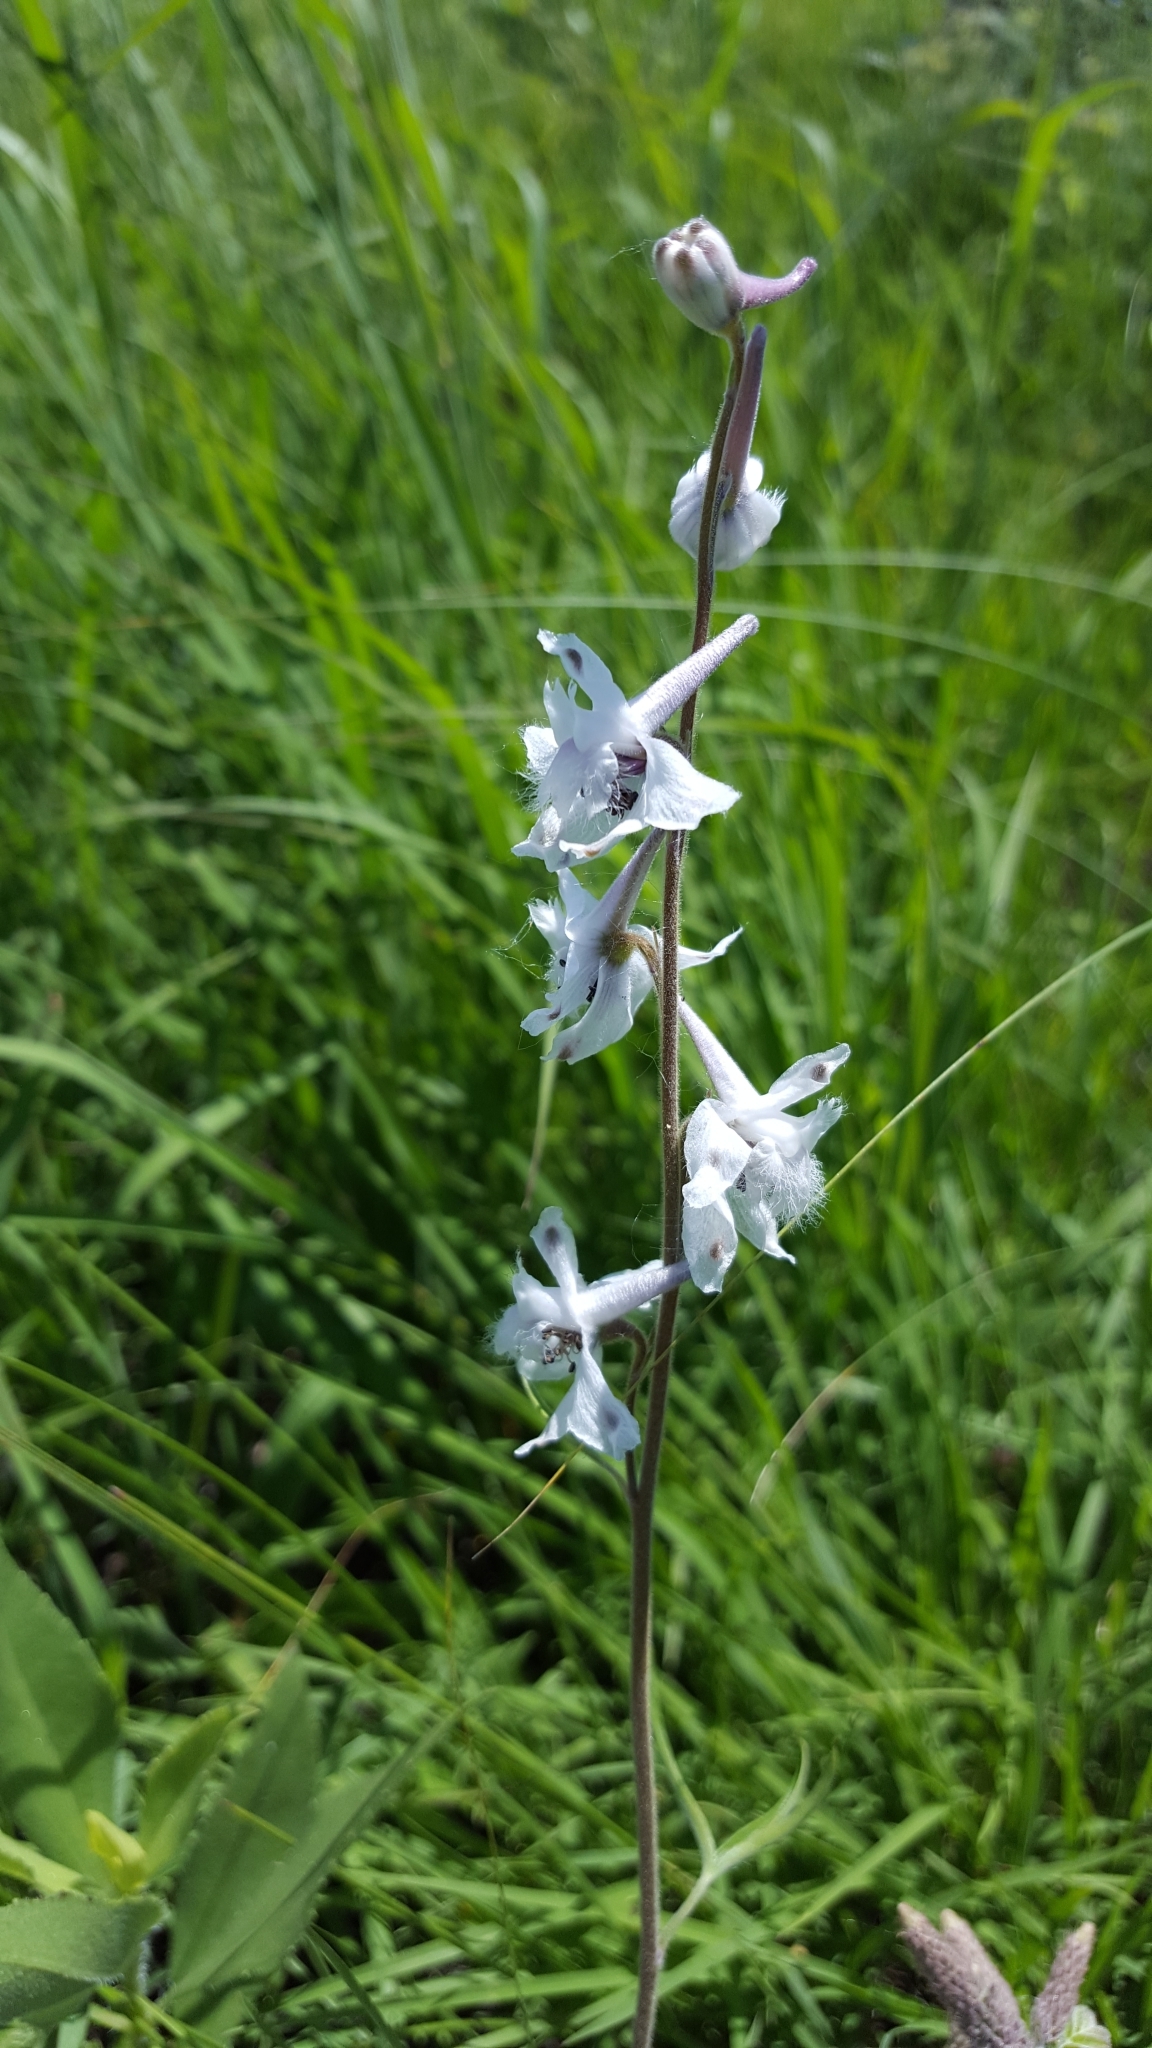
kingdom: Plantae
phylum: Tracheophyta
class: Magnoliopsida
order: Ranunculales
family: Ranunculaceae
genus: Delphinium
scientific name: Delphinium carolinianum
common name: Carolina larkspur
